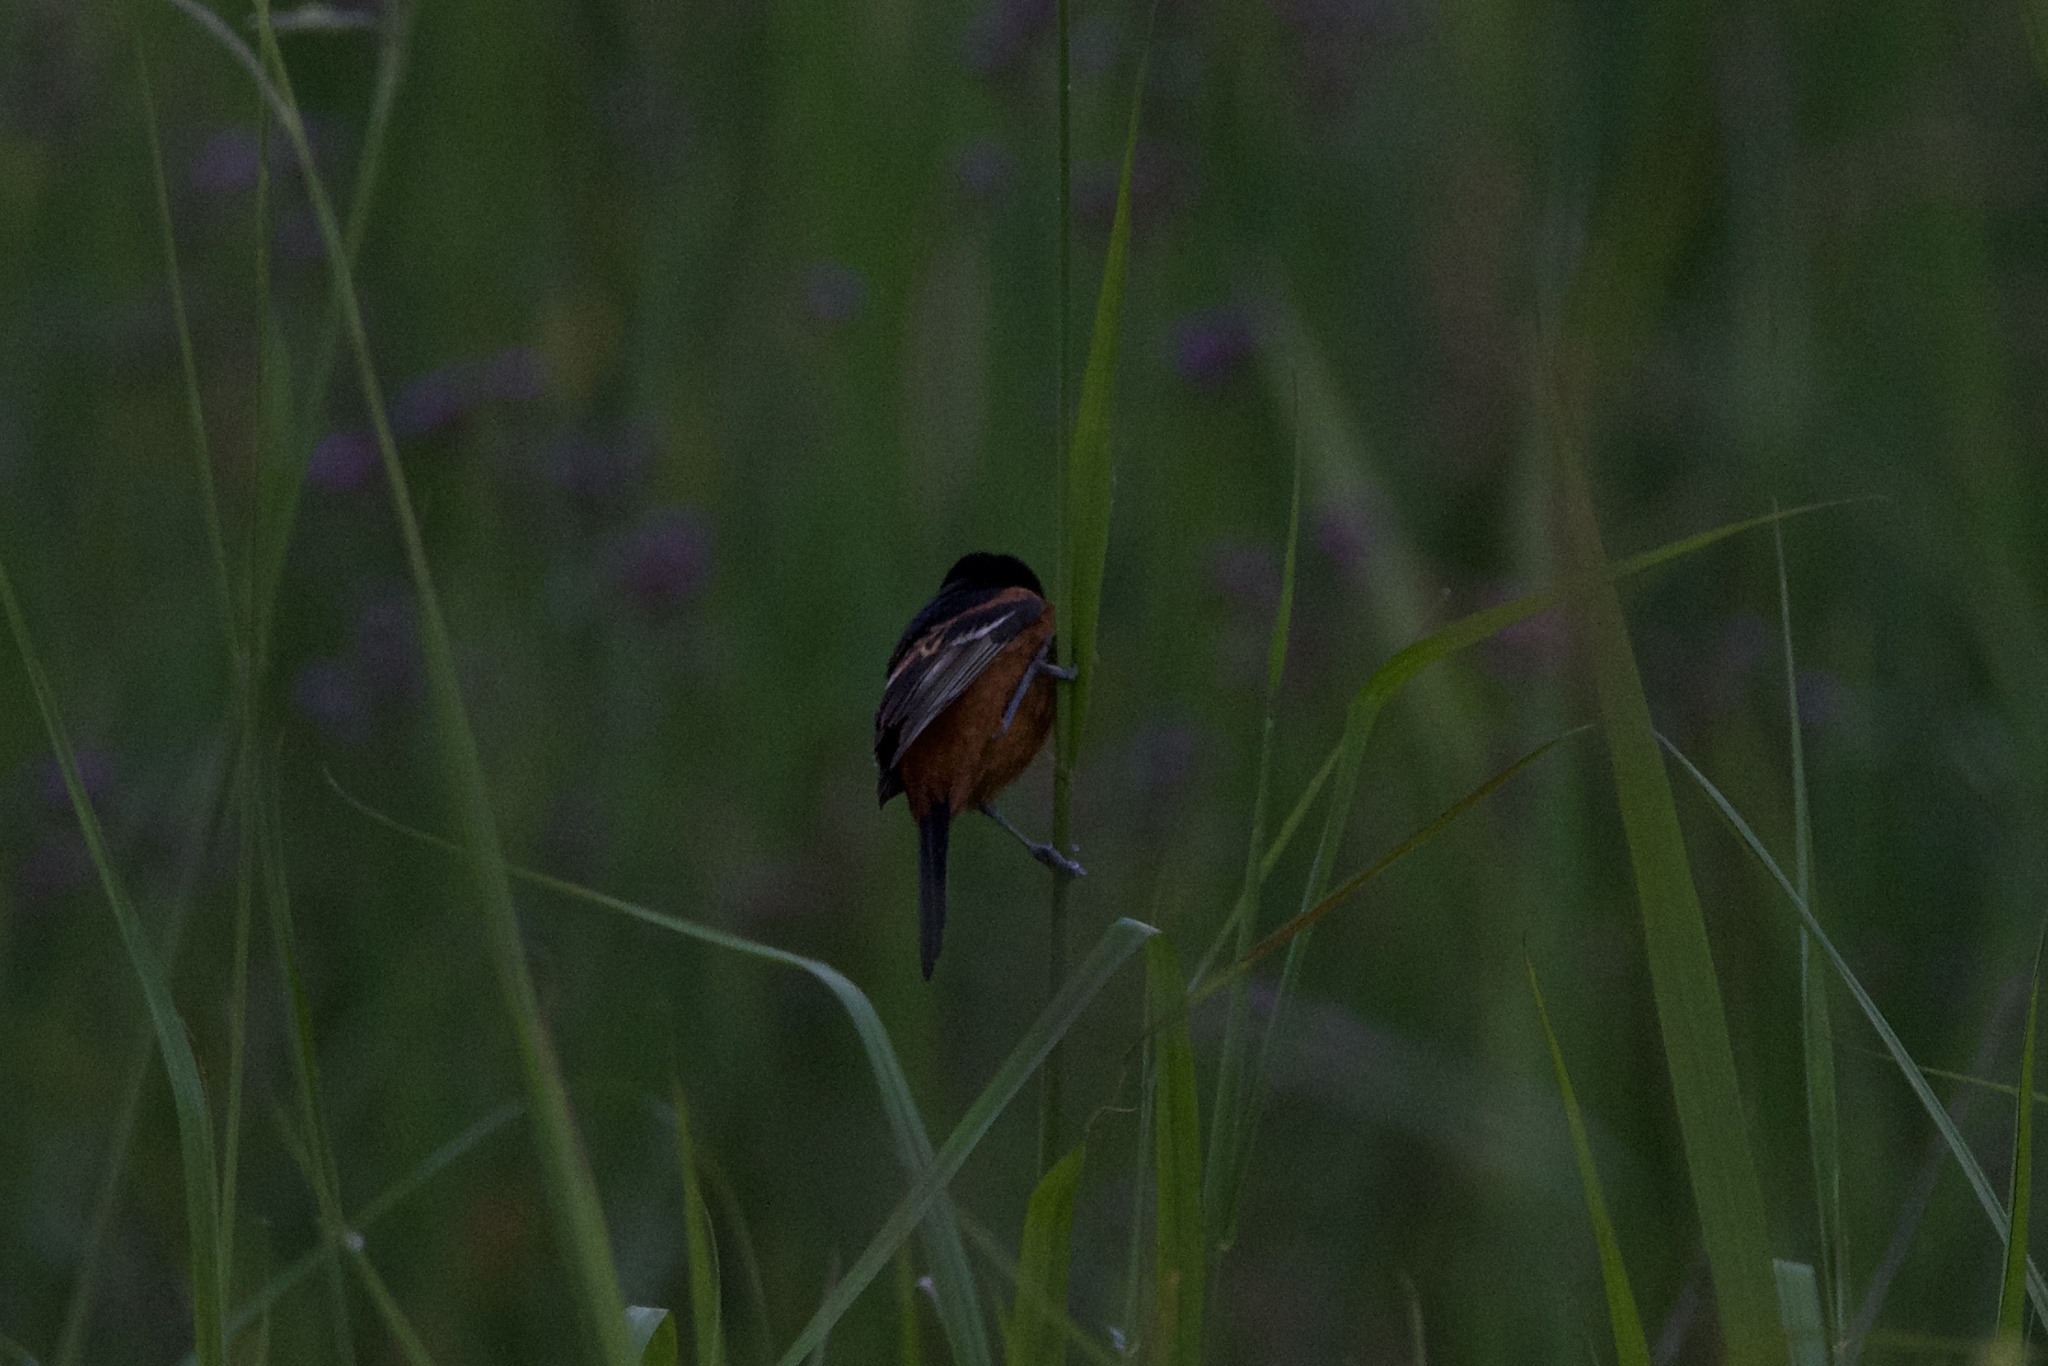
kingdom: Animalia
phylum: Chordata
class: Aves
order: Passeriformes
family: Icteridae
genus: Icterus
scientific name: Icterus spurius
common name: Orchard oriole
